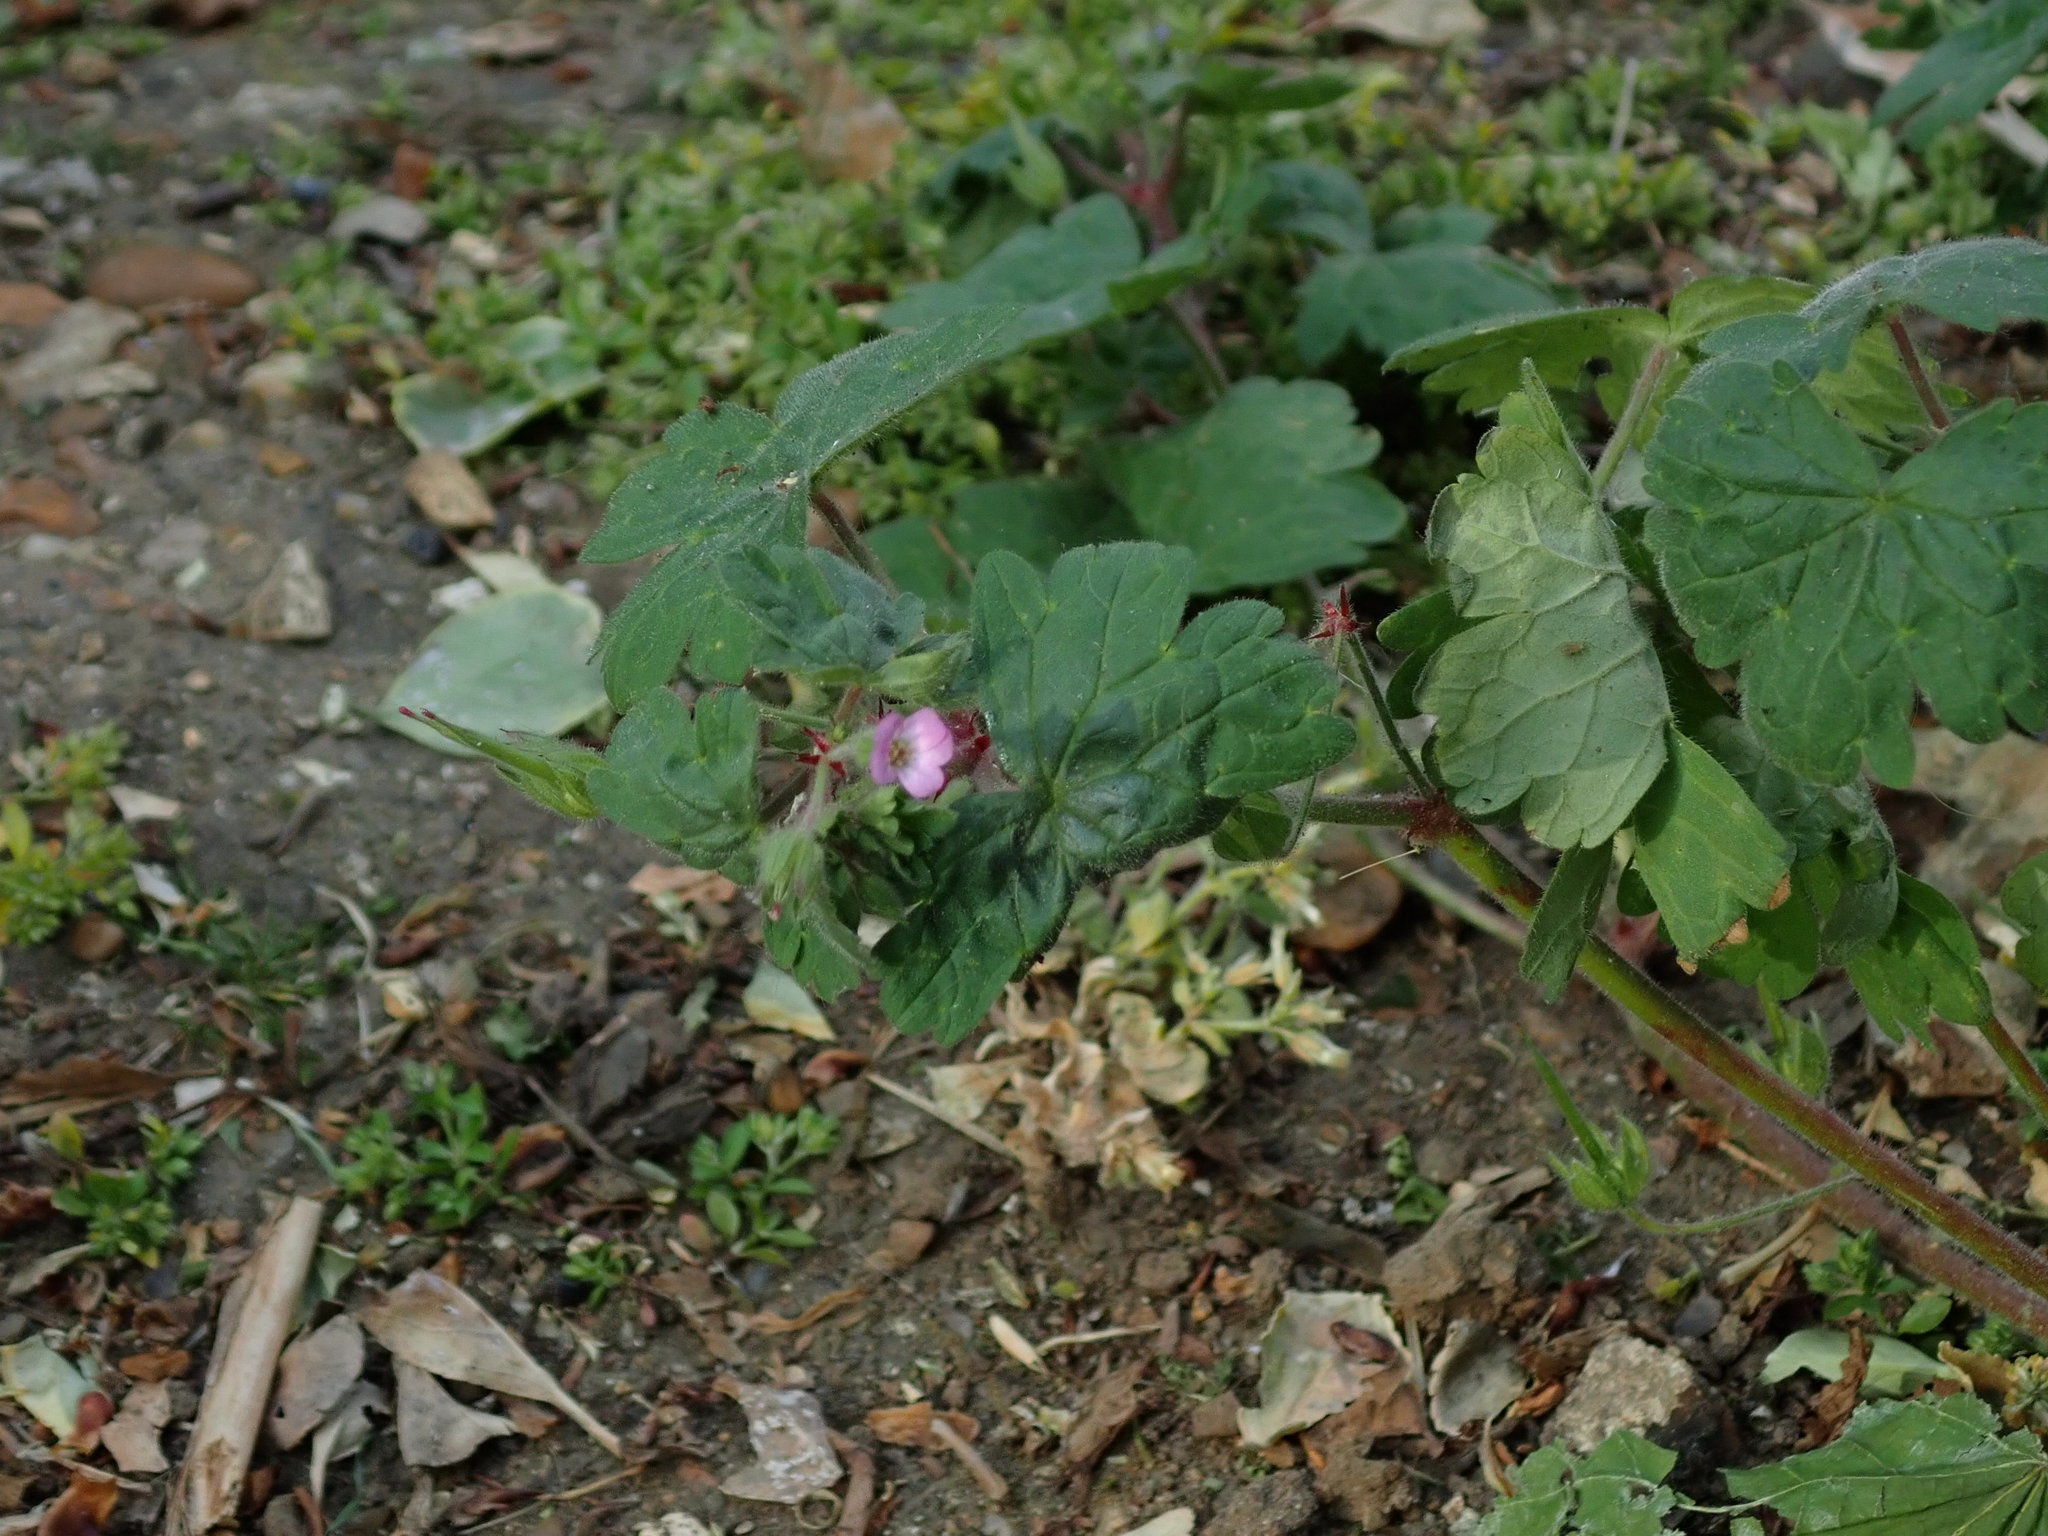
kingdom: Plantae
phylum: Tracheophyta
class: Magnoliopsida
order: Geraniales
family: Geraniaceae
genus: Geranium
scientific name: Geranium rotundifolium
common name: Round-leaved crane's-bill
